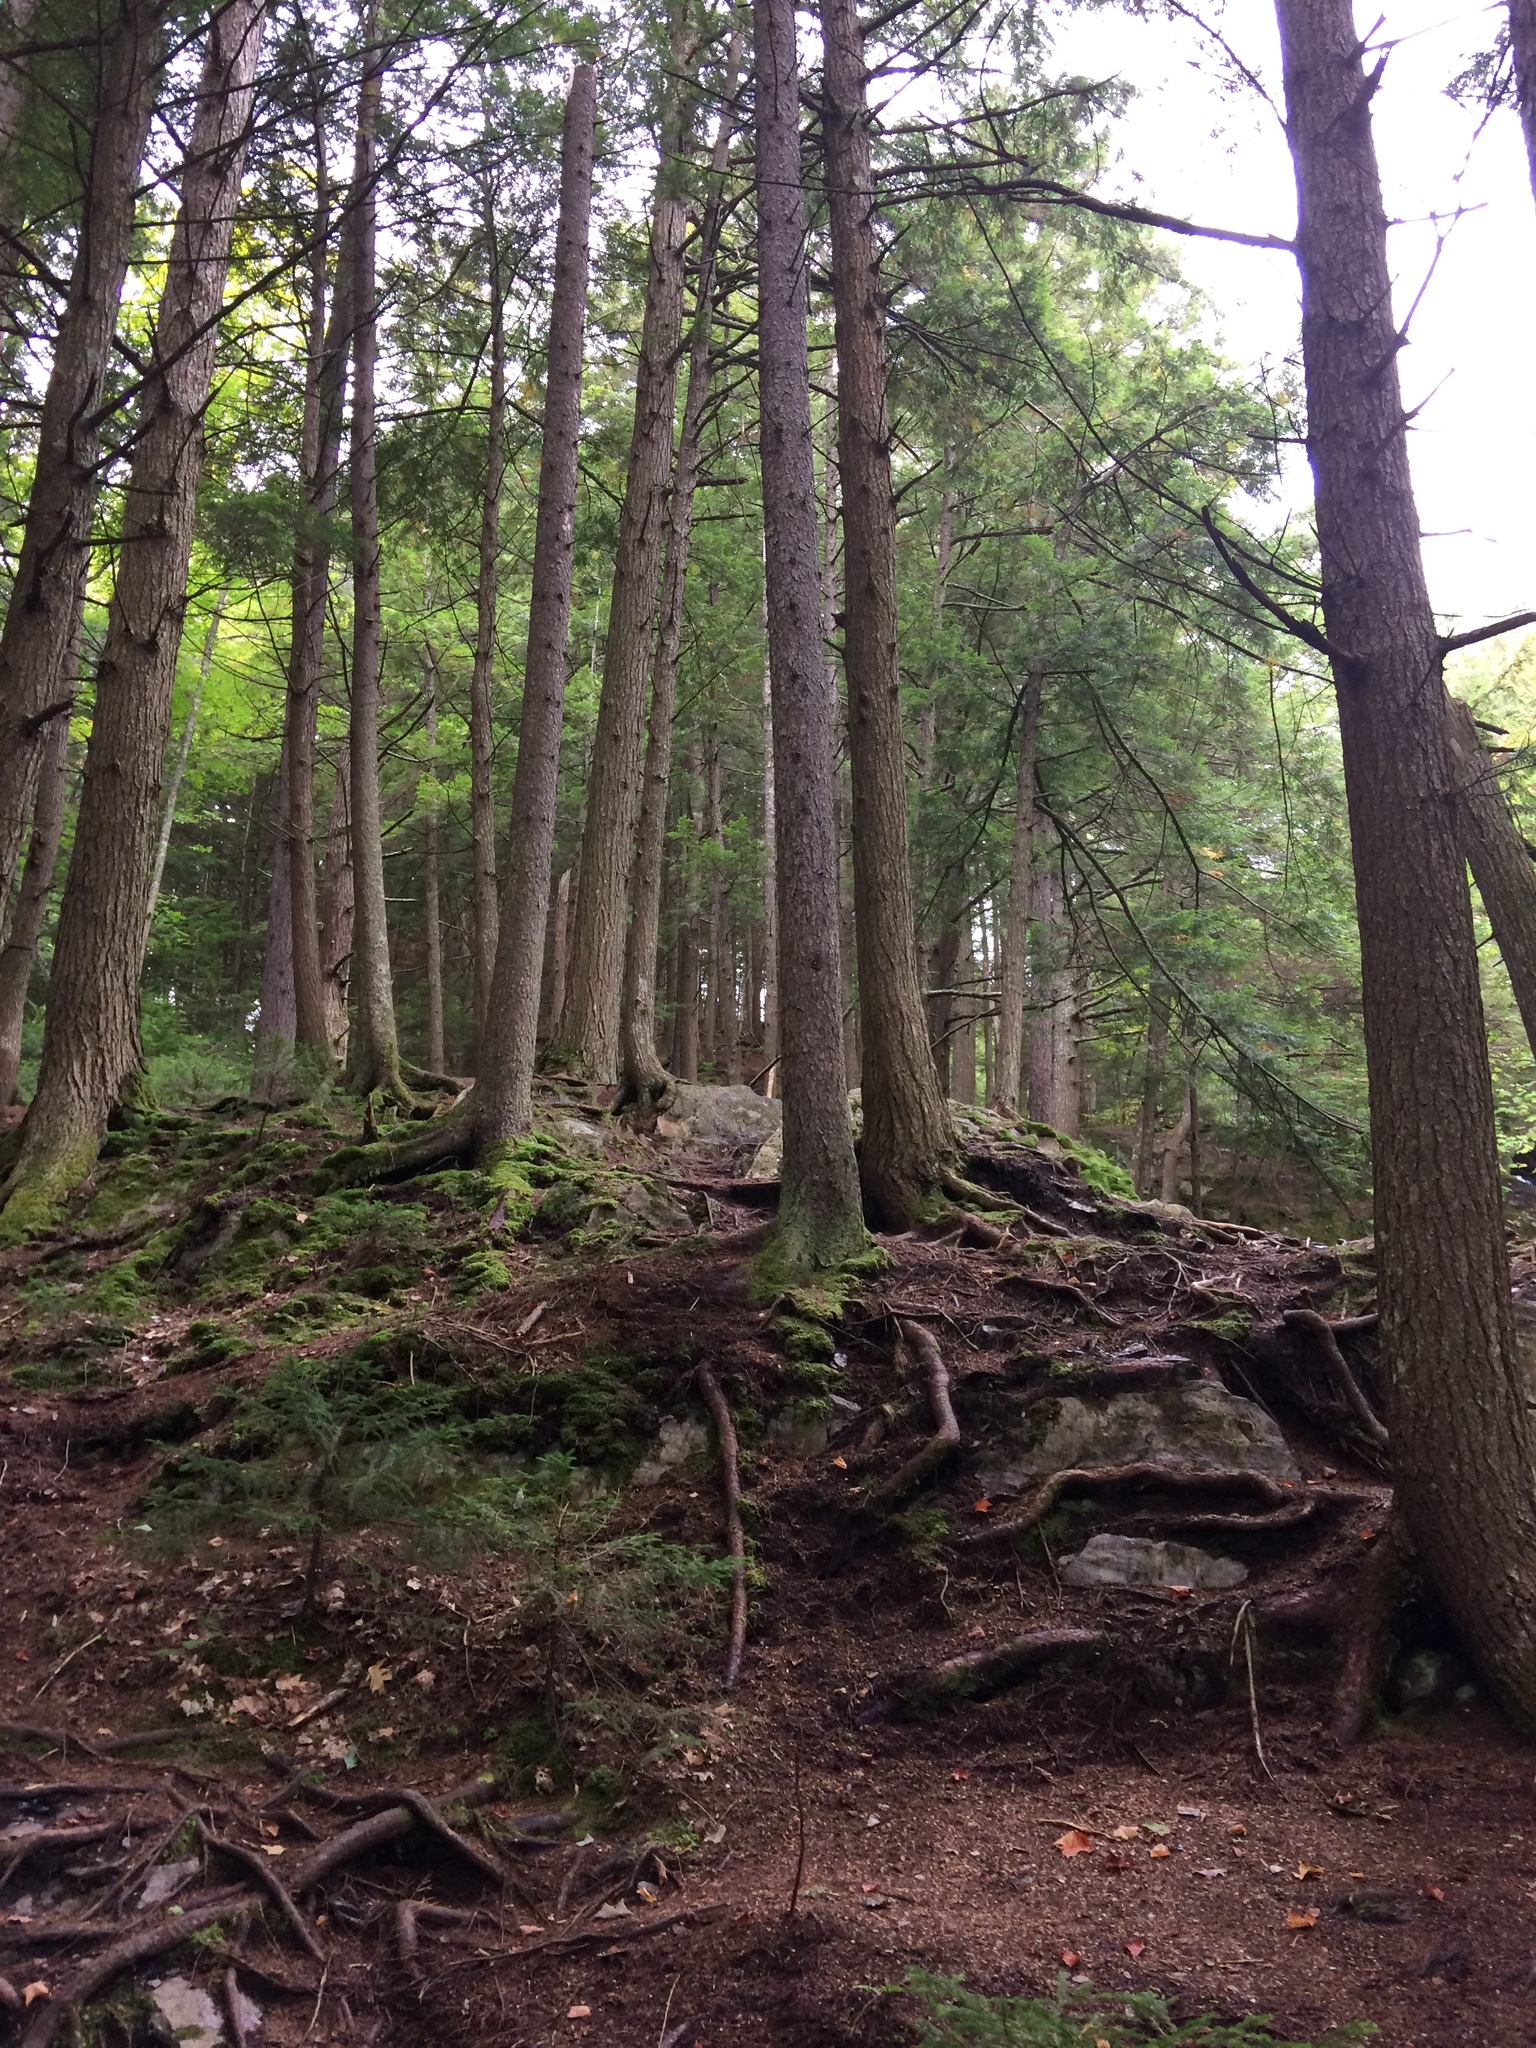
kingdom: Plantae
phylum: Tracheophyta
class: Pinopsida
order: Pinales
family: Pinaceae
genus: Tsuga
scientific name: Tsuga canadensis
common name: Eastern hemlock
